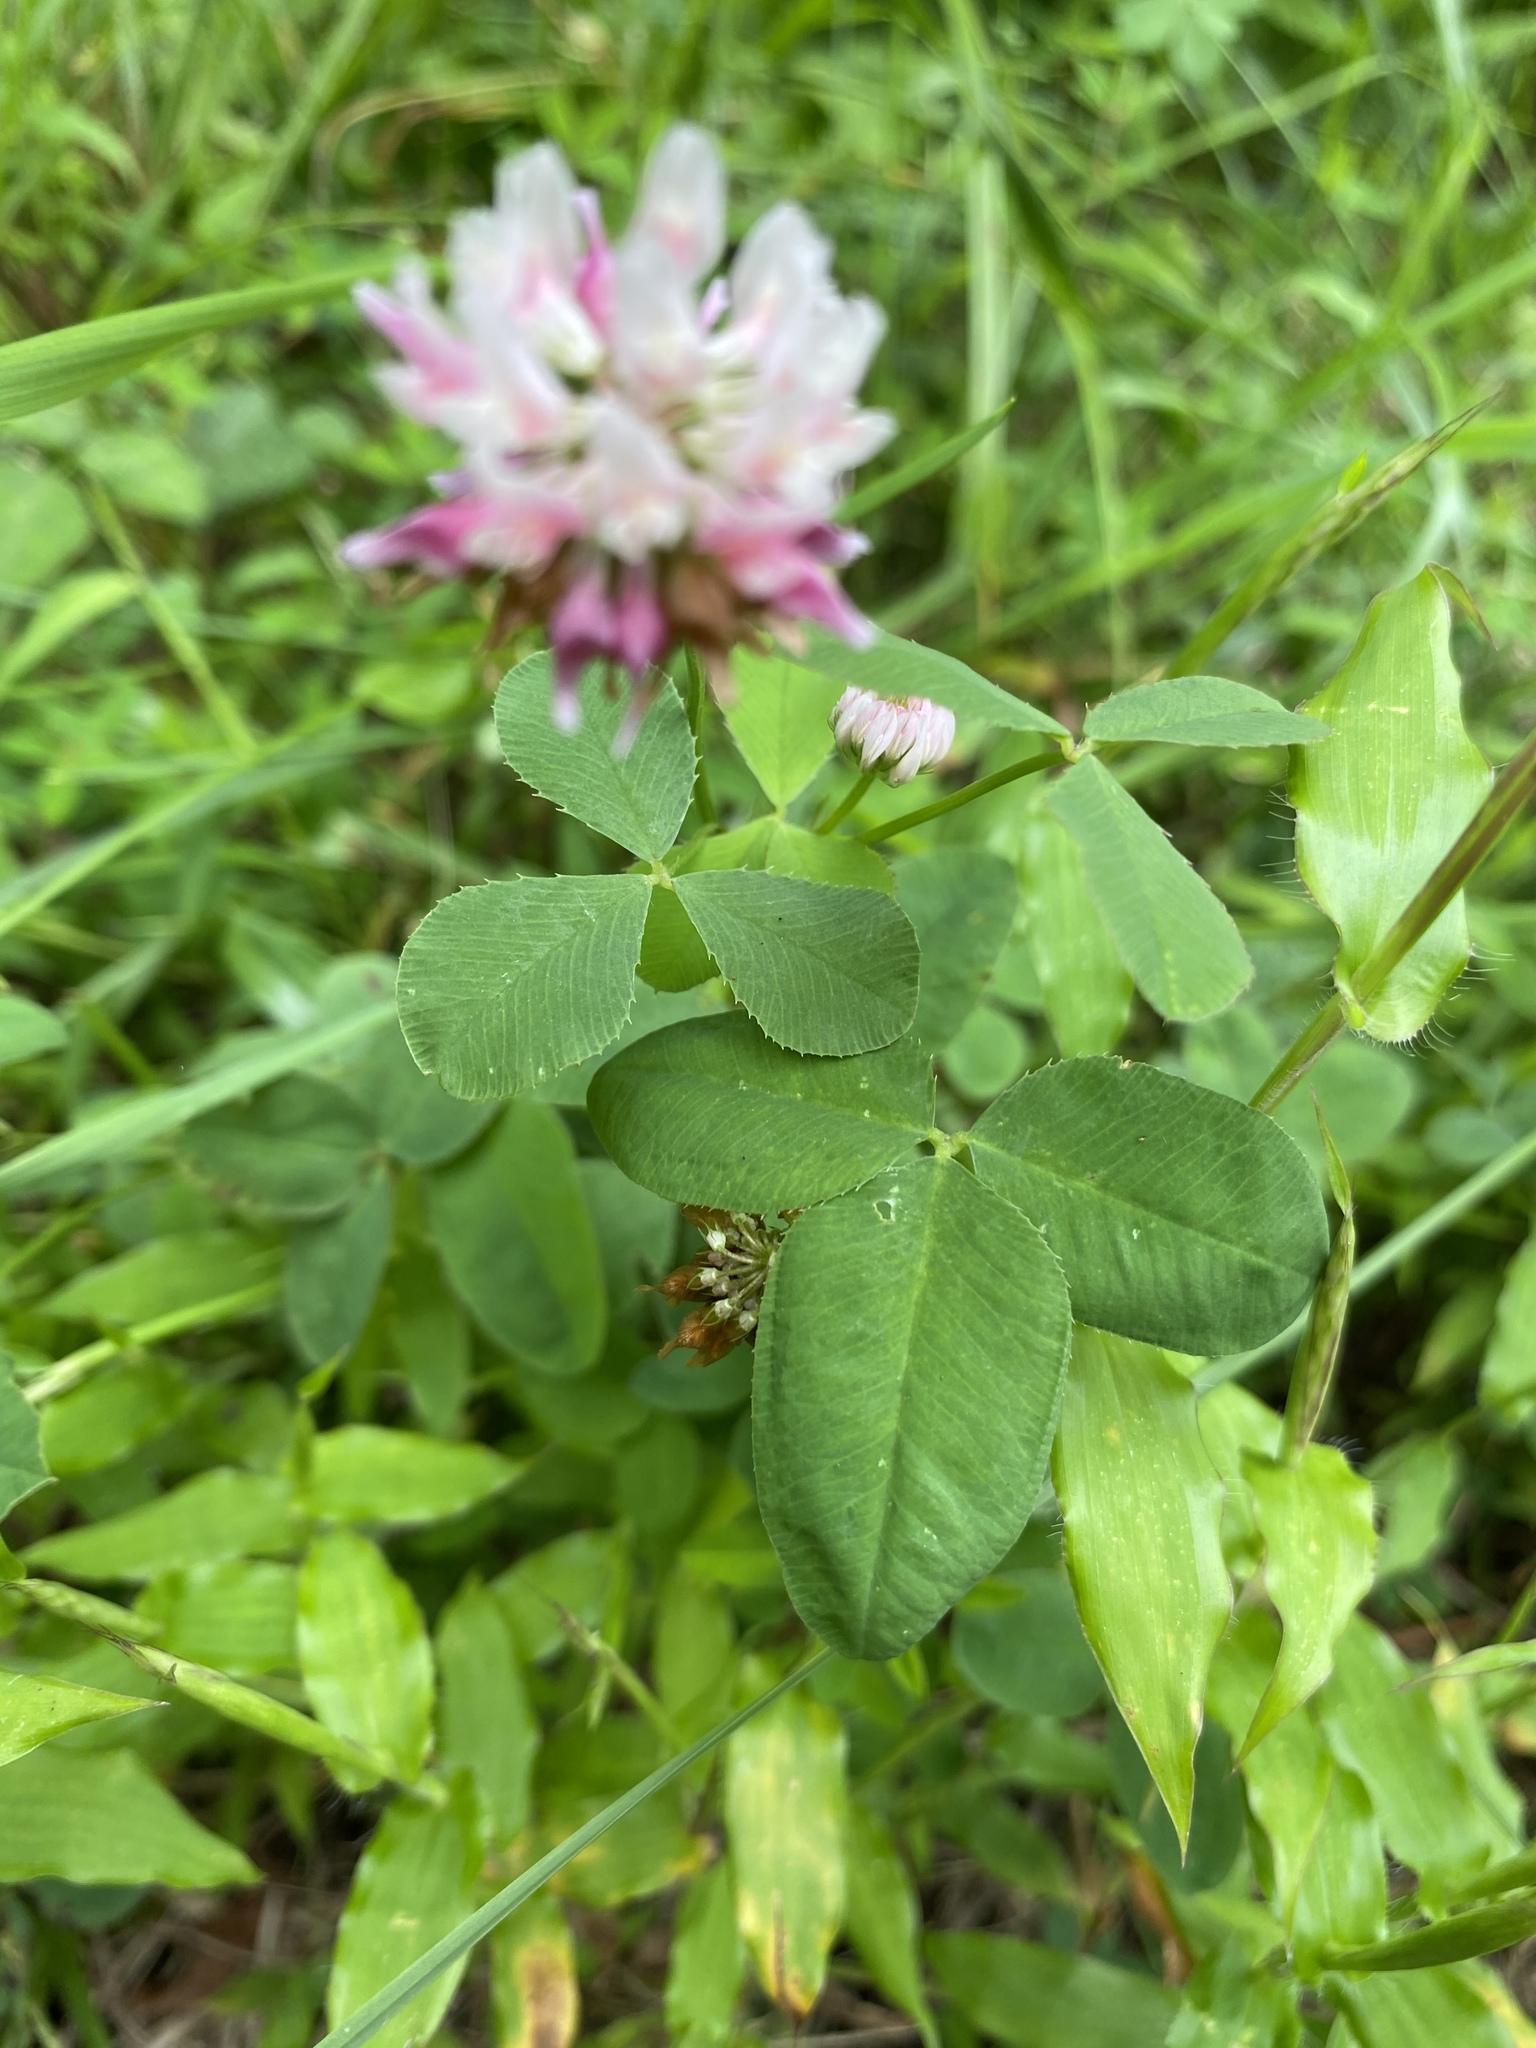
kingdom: Plantae
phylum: Tracheophyta
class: Magnoliopsida
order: Fabales
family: Fabaceae
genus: Trifolium
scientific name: Trifolium hybridum
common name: Alsike clover
